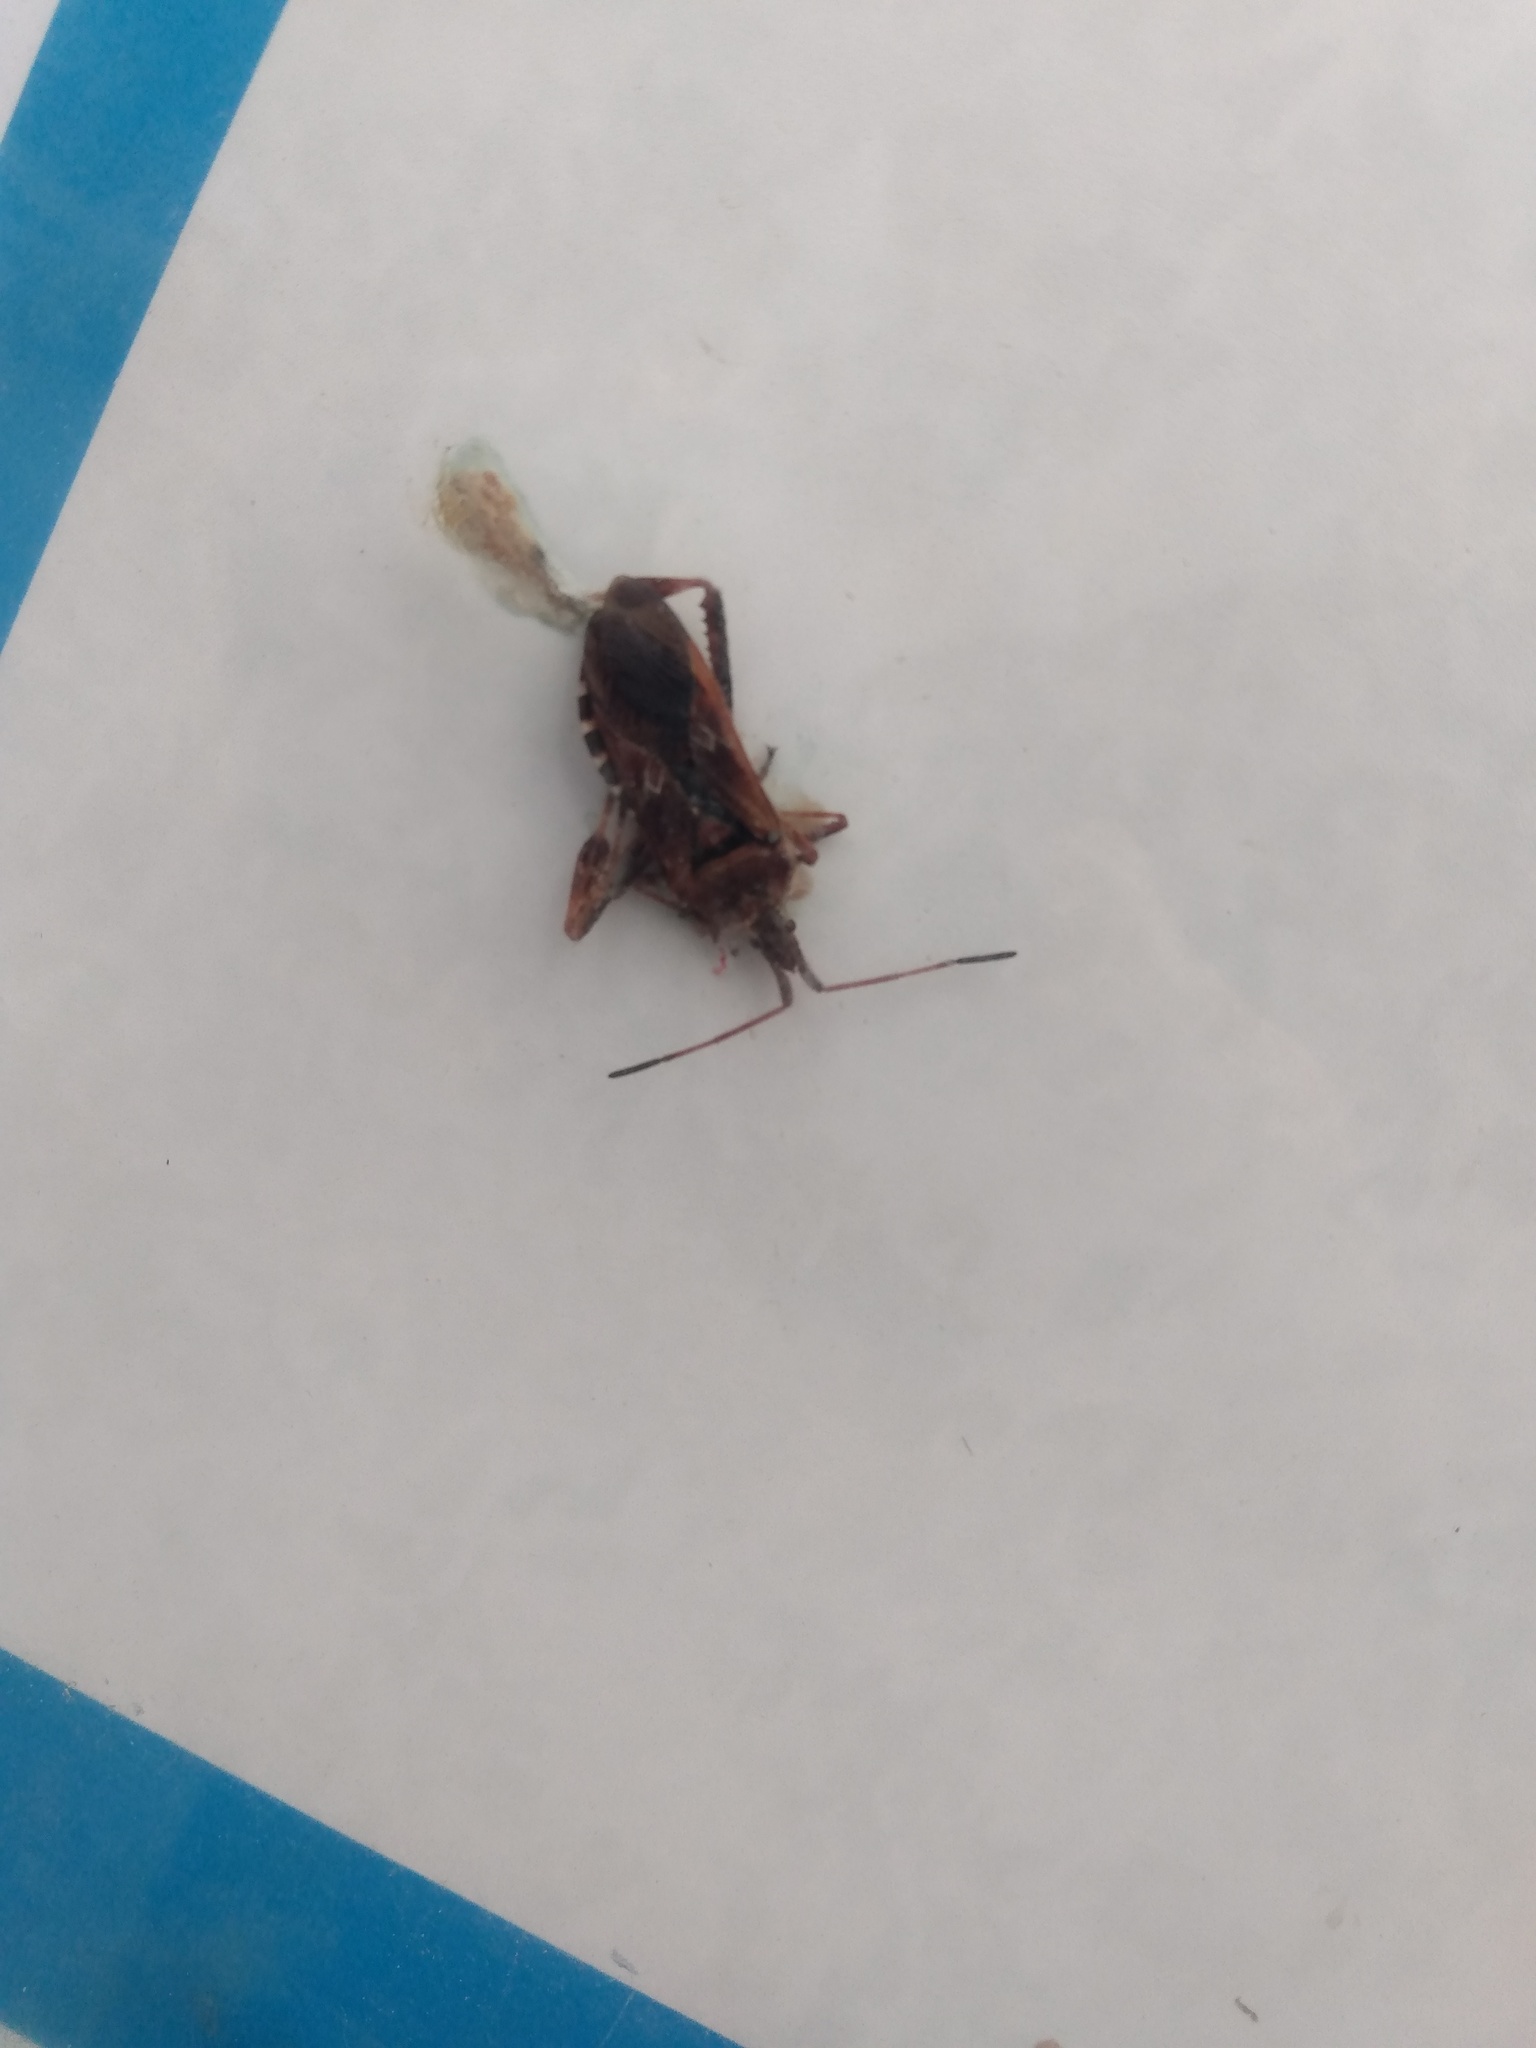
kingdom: Animalia
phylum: Arthropoda
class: Insecta
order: Hemiptera
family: Coreidae
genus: Leptoglossus
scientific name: Leptoglossus occidentalis
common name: Western conifer-seed bug
